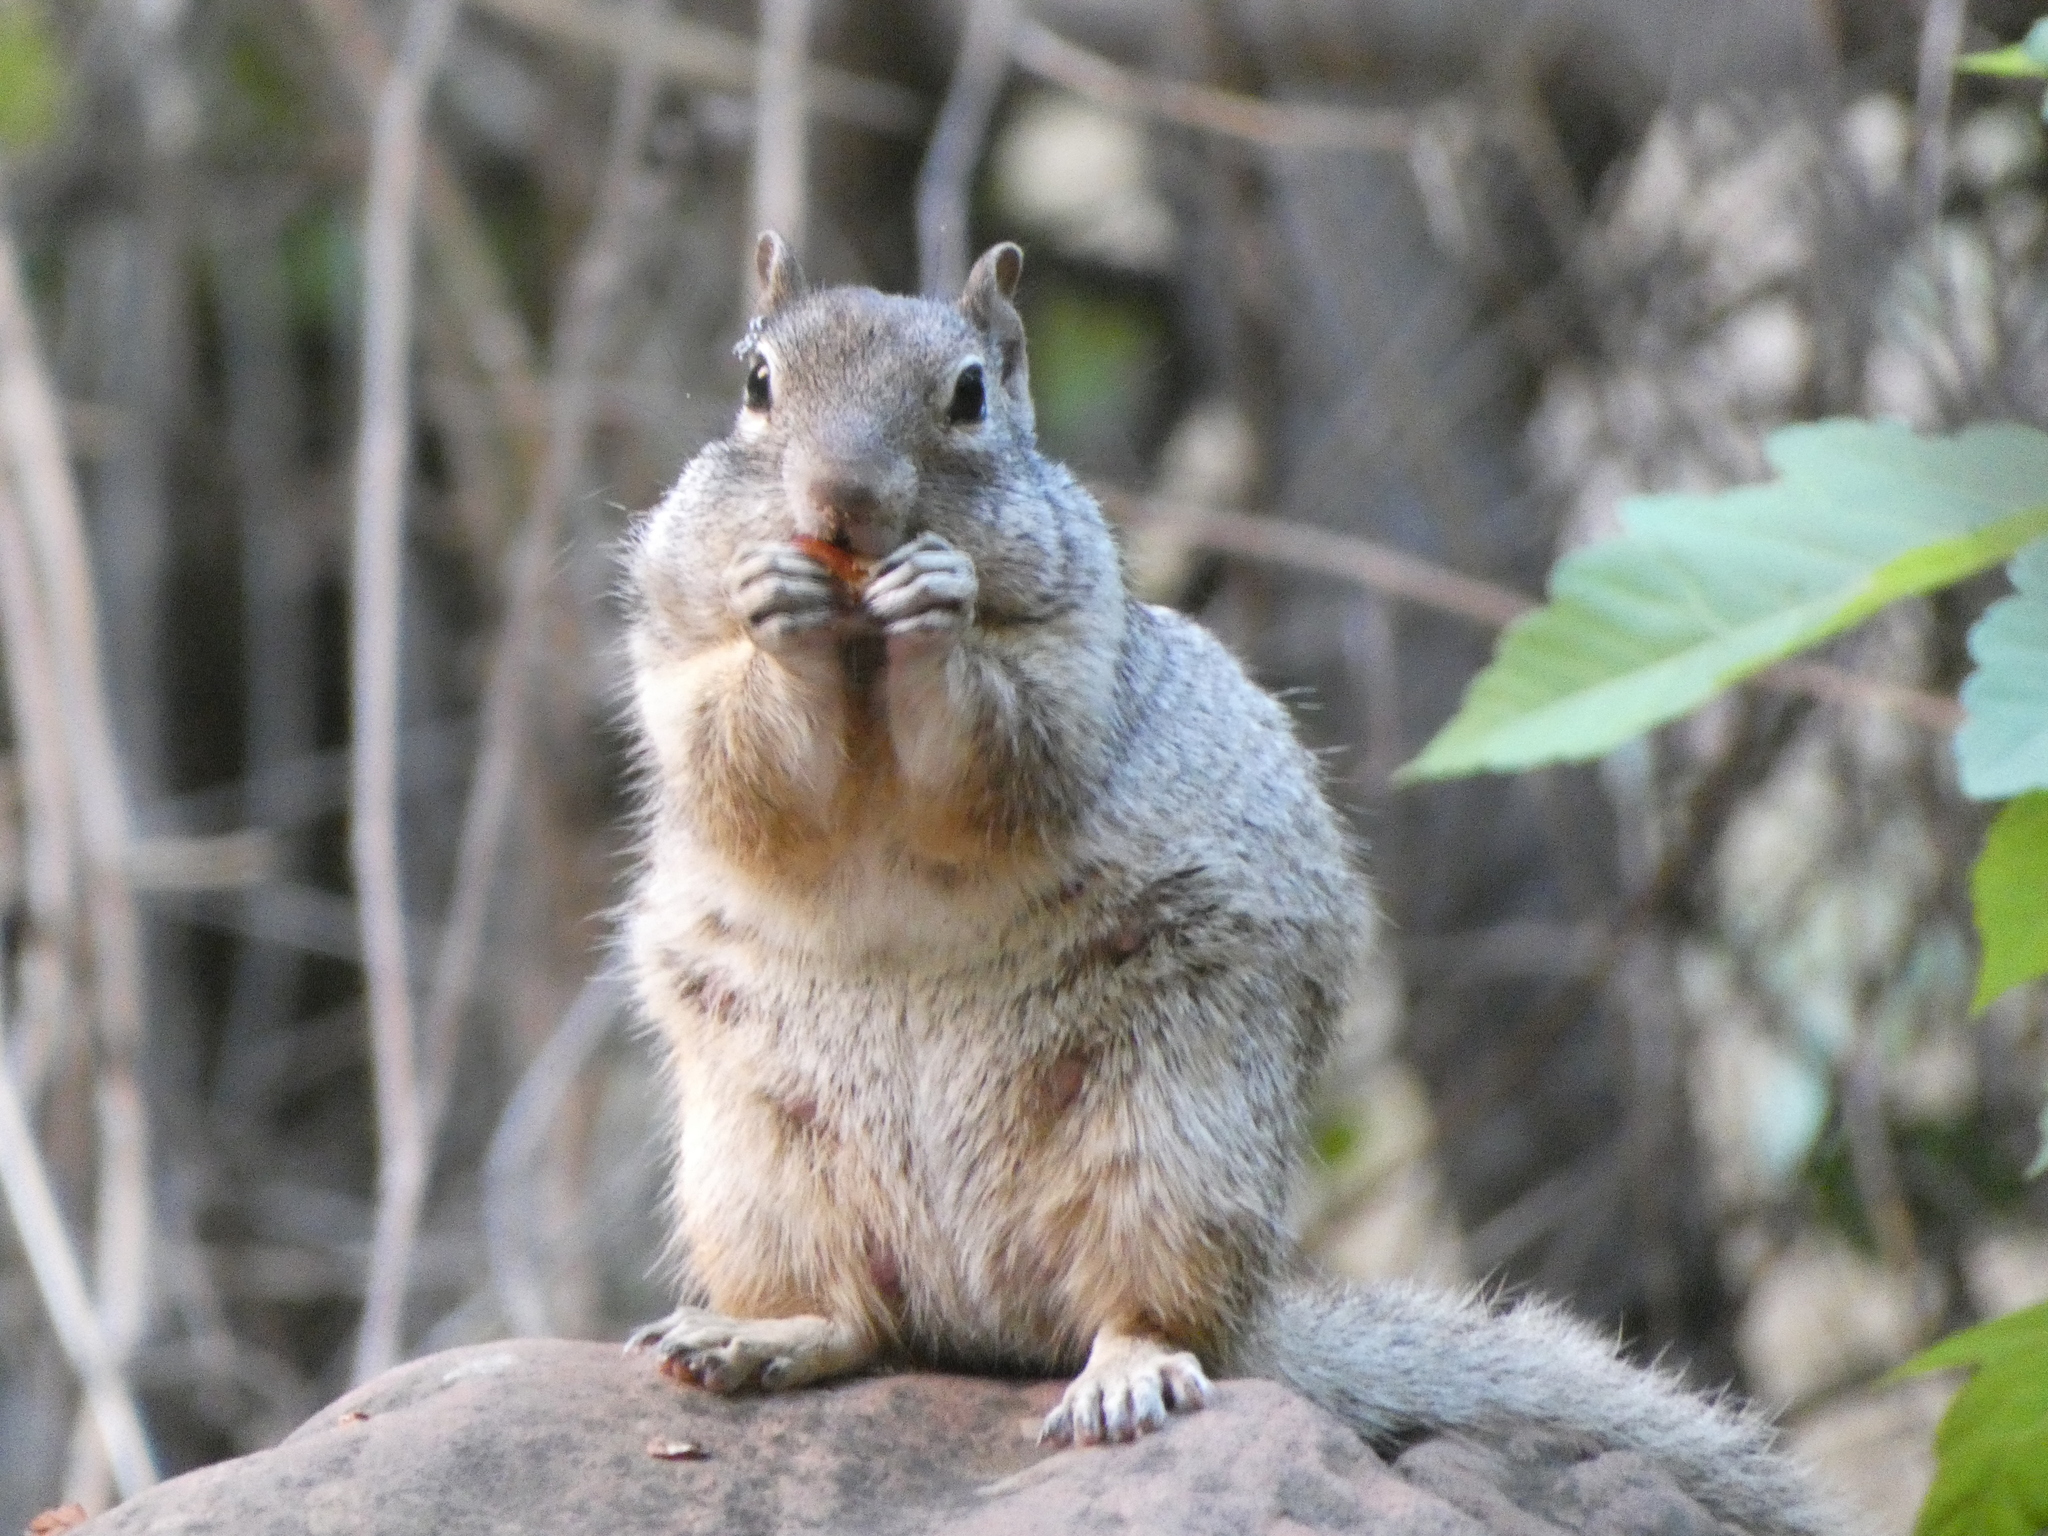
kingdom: Animalia
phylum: Chordata
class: Mammalia
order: Rodentia
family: Sciuridae
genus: Otospermophilus
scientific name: Otospermophilus variegatus
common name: Rock squirrel
